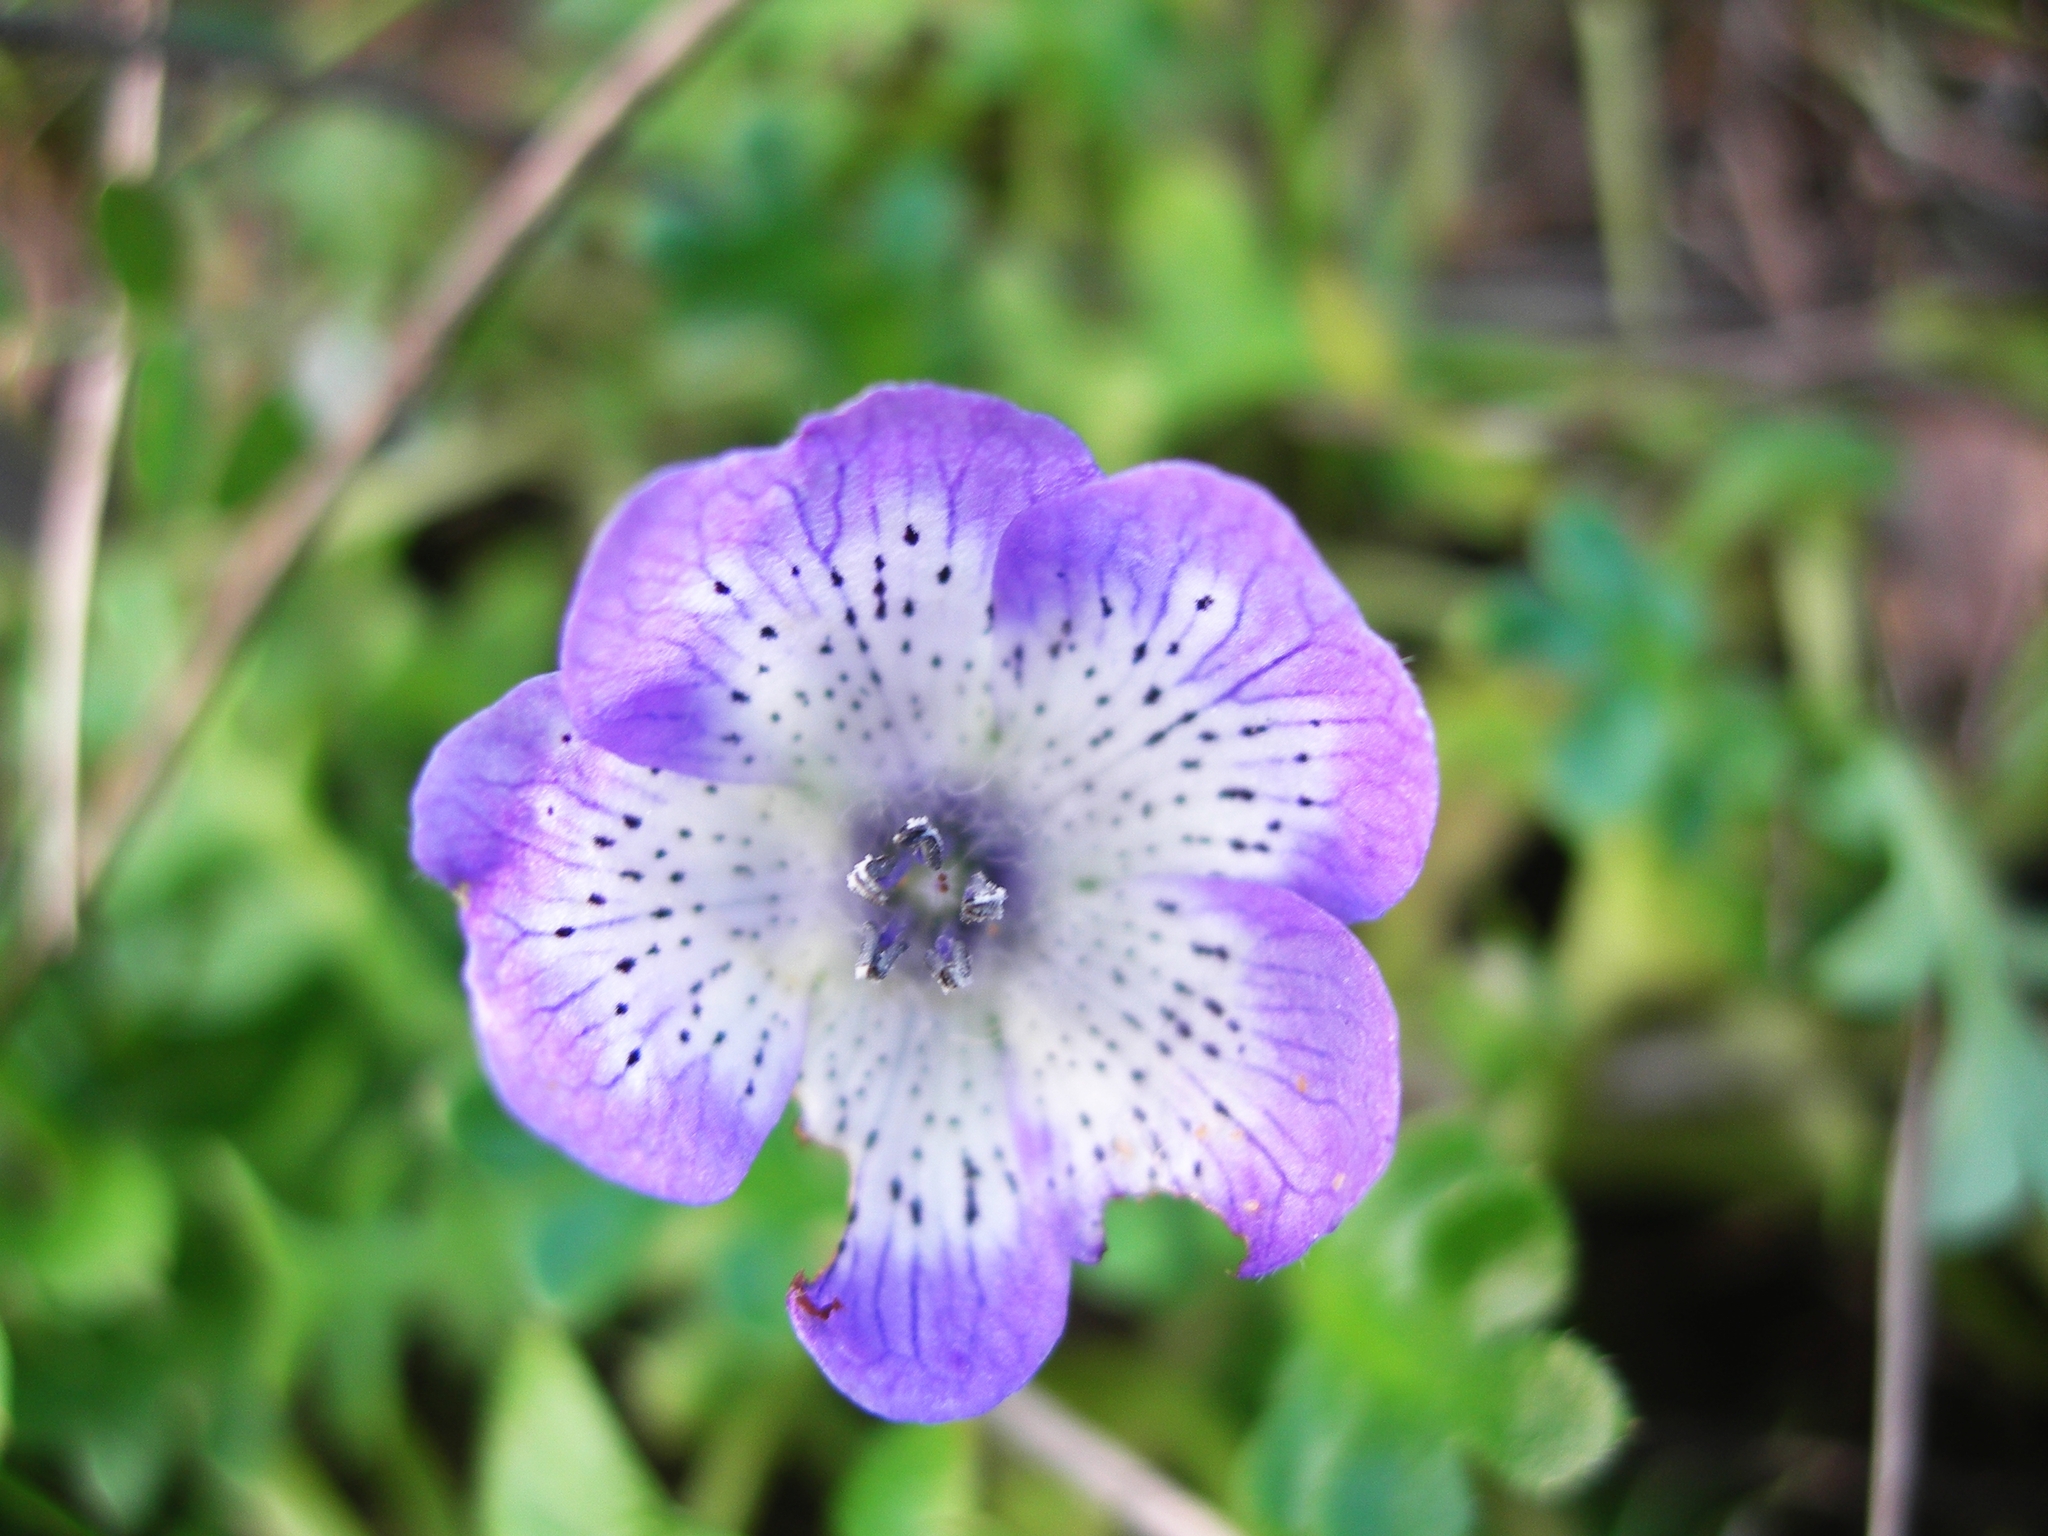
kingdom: Plantae
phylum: Tracheophyta
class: Magnoliopsida
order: Boraginales
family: Hydrophyllaceae
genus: Nemophila
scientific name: Nemophila menziesii
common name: Baby's-blue-eyes
